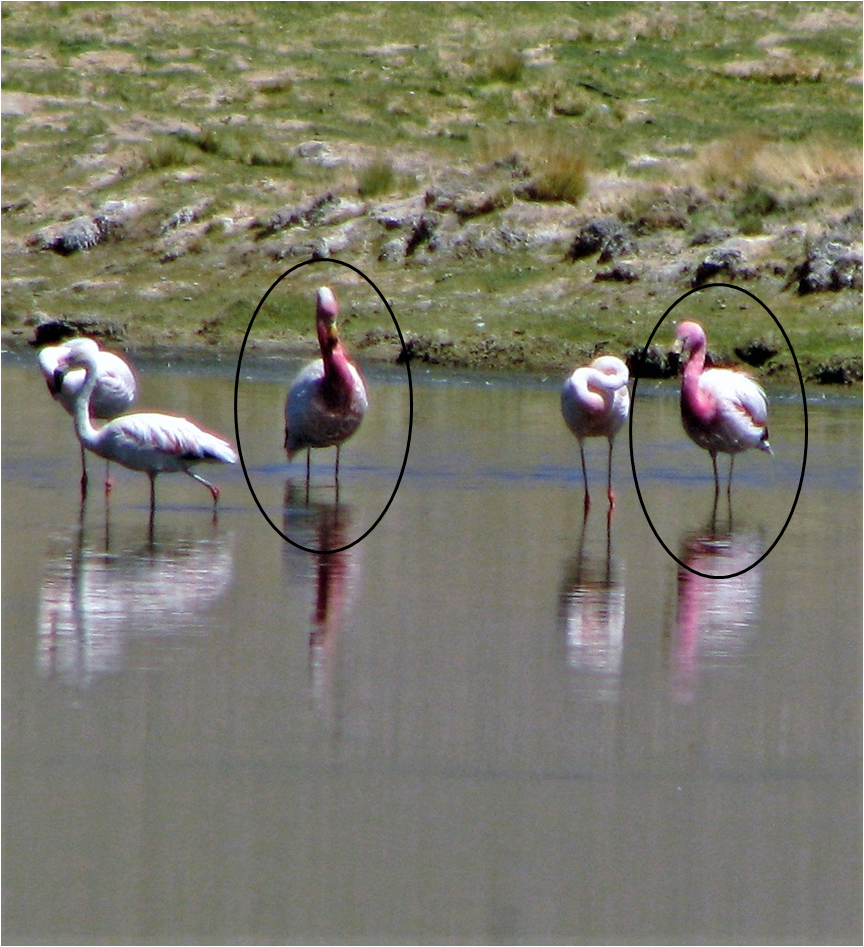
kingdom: Animalia
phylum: Chordata
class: Aves
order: Phoenicopteriformes
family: Phoenicopteridae
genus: Phoenicoparrus
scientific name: Phoenicoparrus andinus
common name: Andean flamingo
